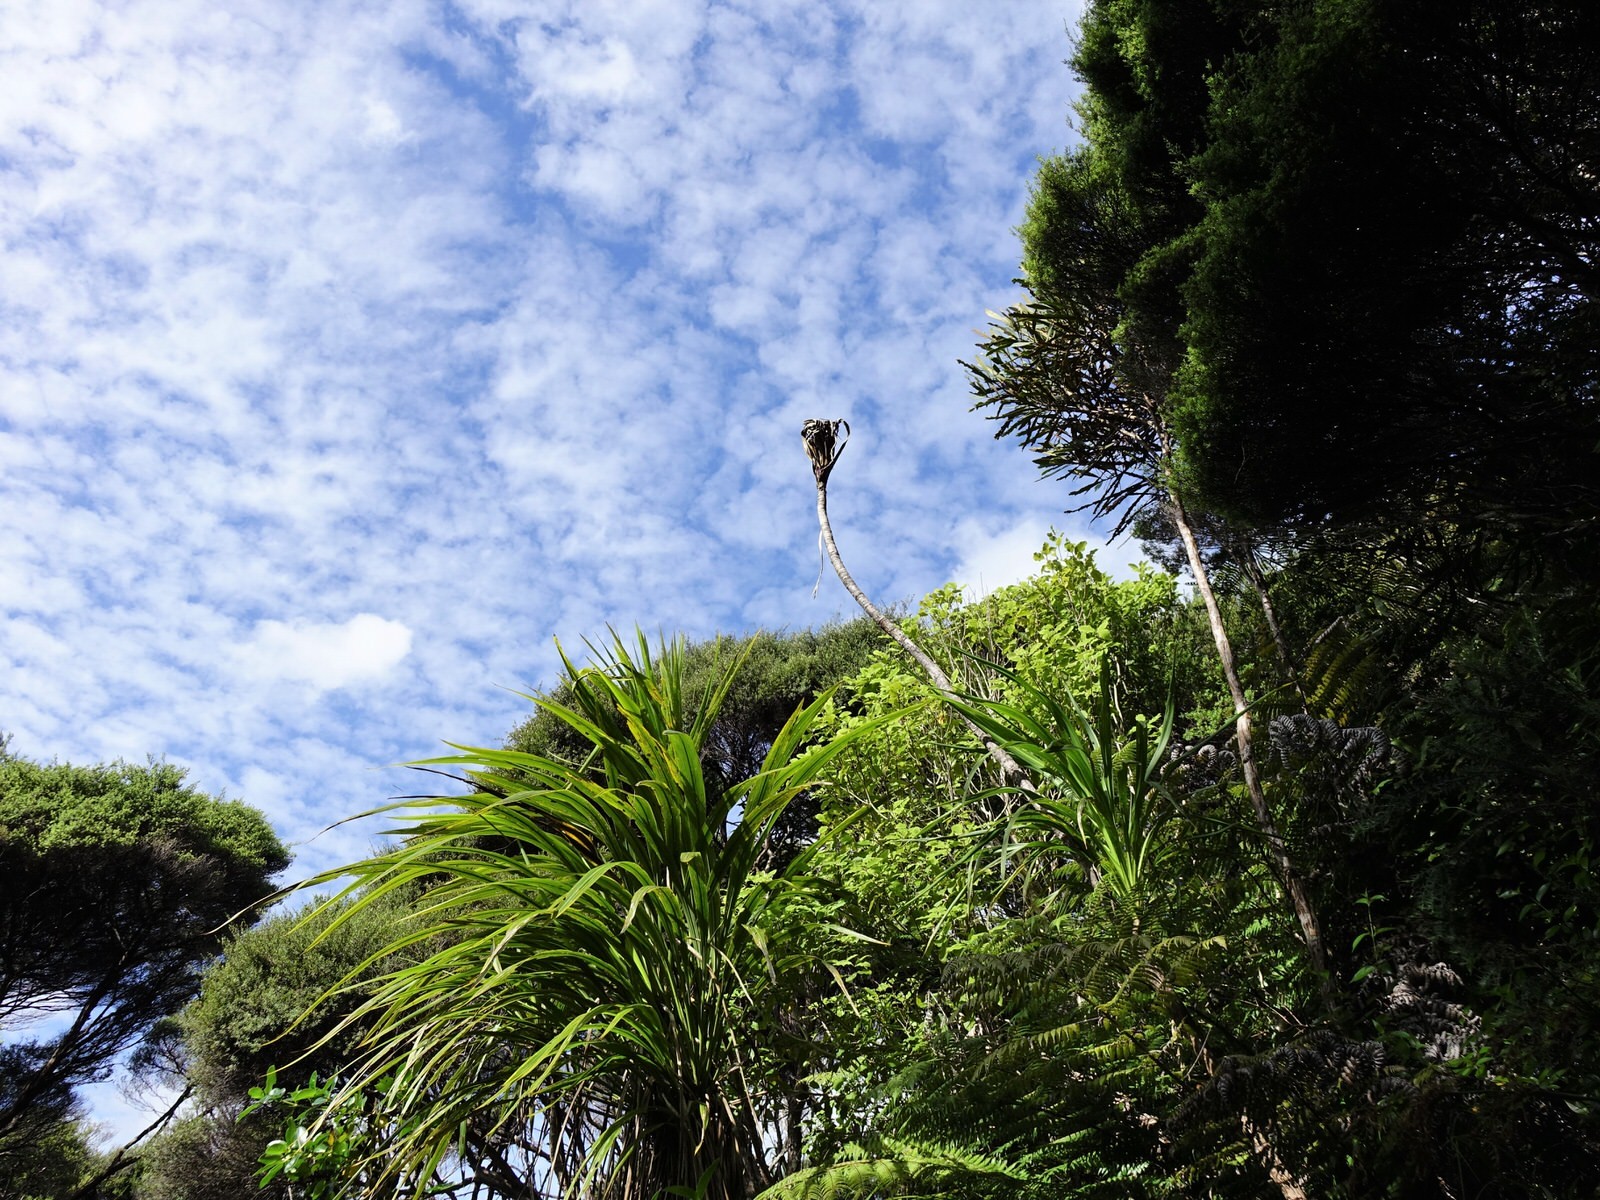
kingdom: Plantae
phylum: Tracheophyta
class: Liliopsida
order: Asparagales
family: Asparagaceae
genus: Cordyline
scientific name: Cordyline banksii
